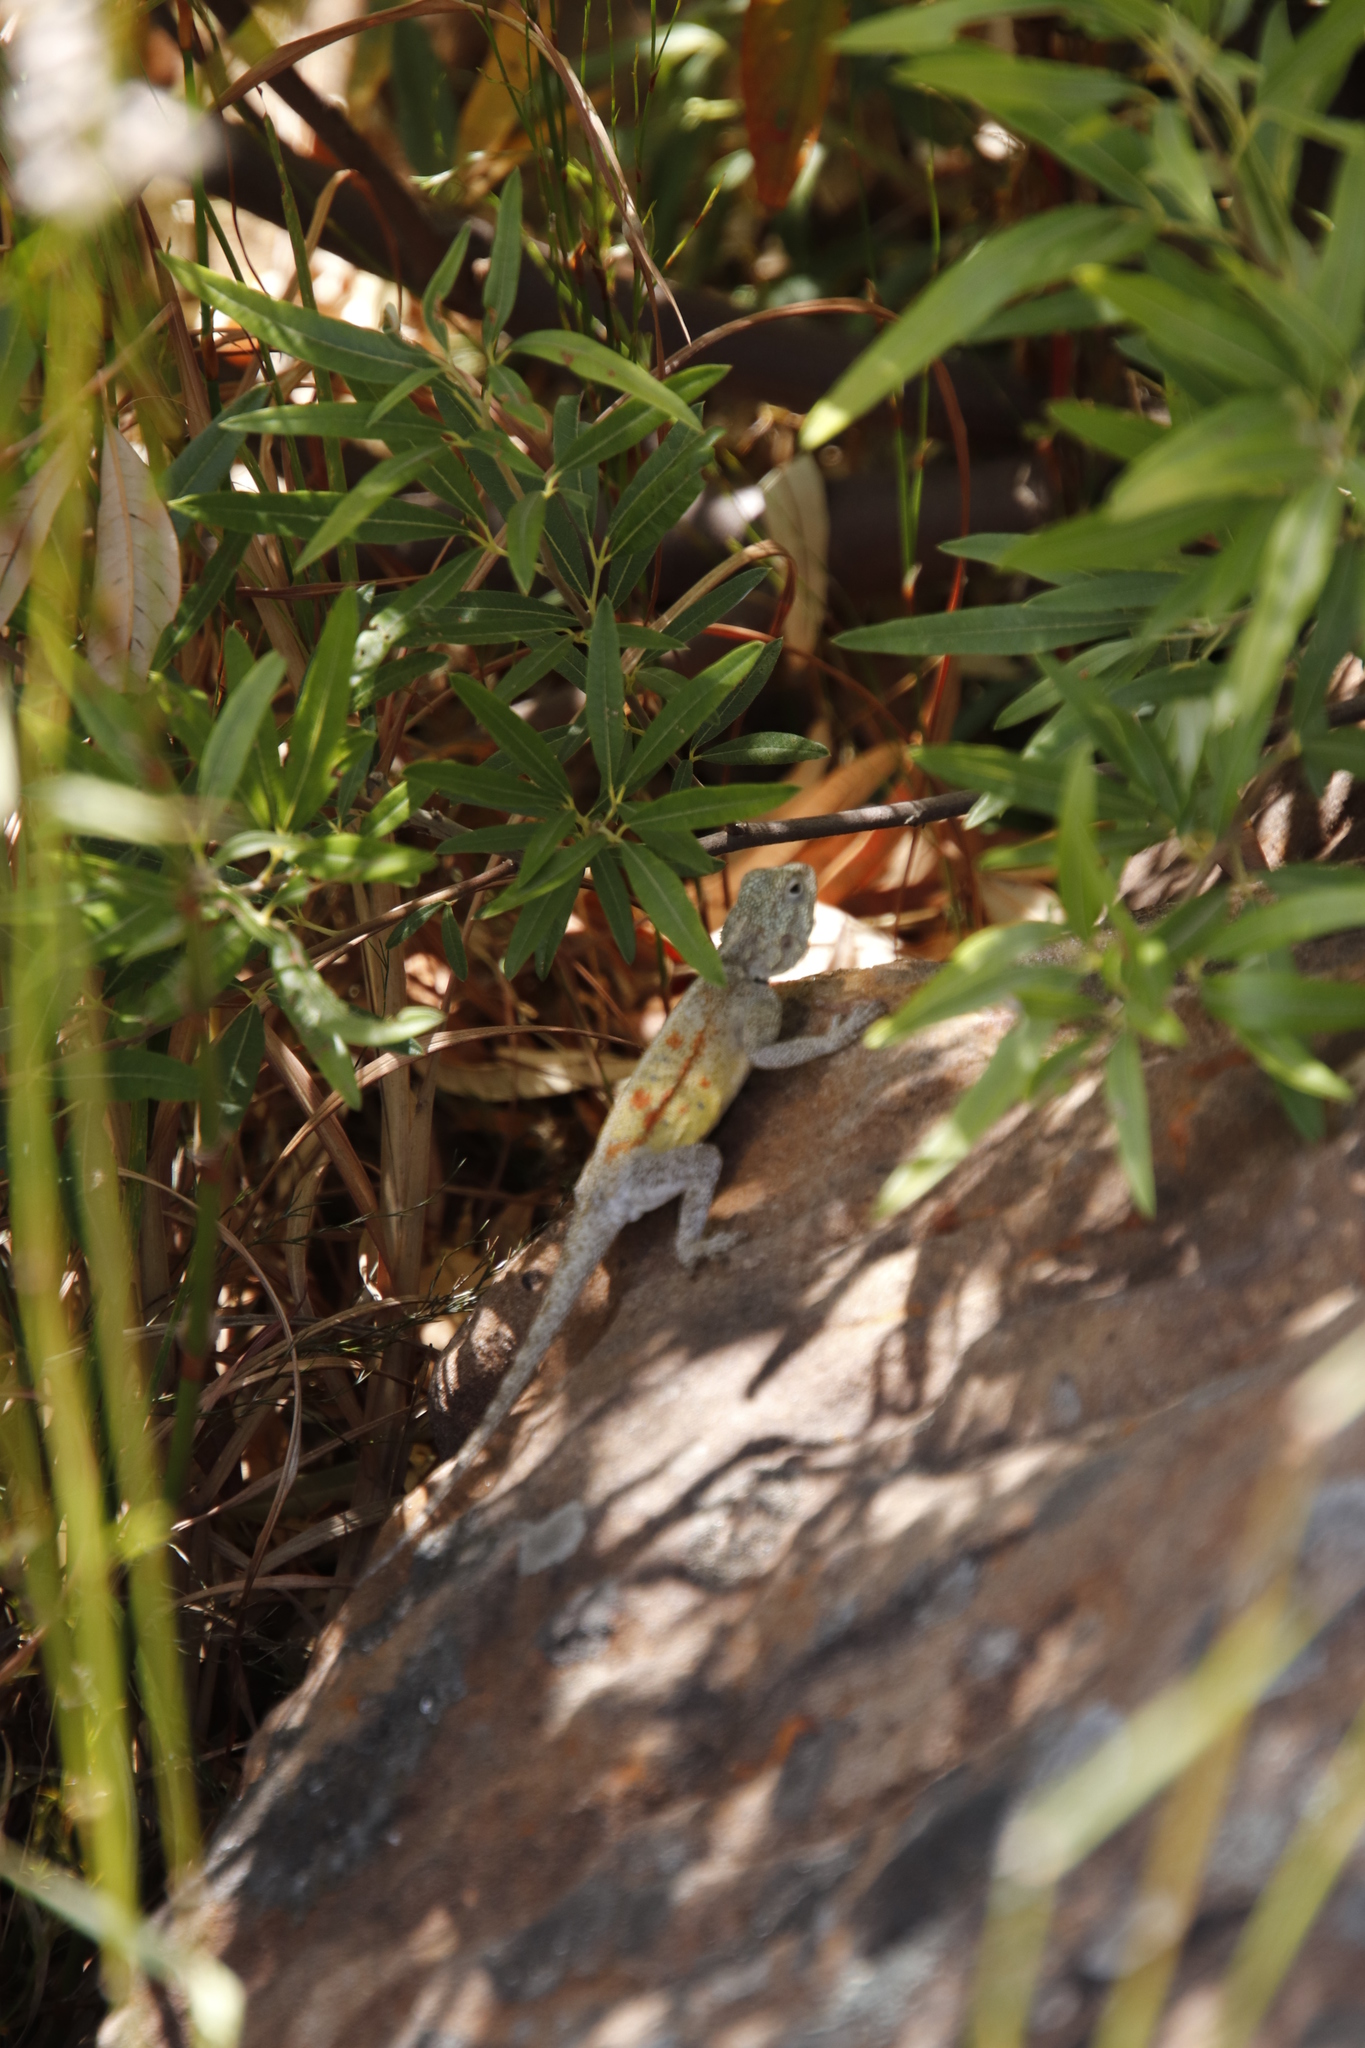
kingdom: Animalia
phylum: Chordata
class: Squamata
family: Agamidae
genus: Agama
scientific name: Agama atra
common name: Southern african rock agama
